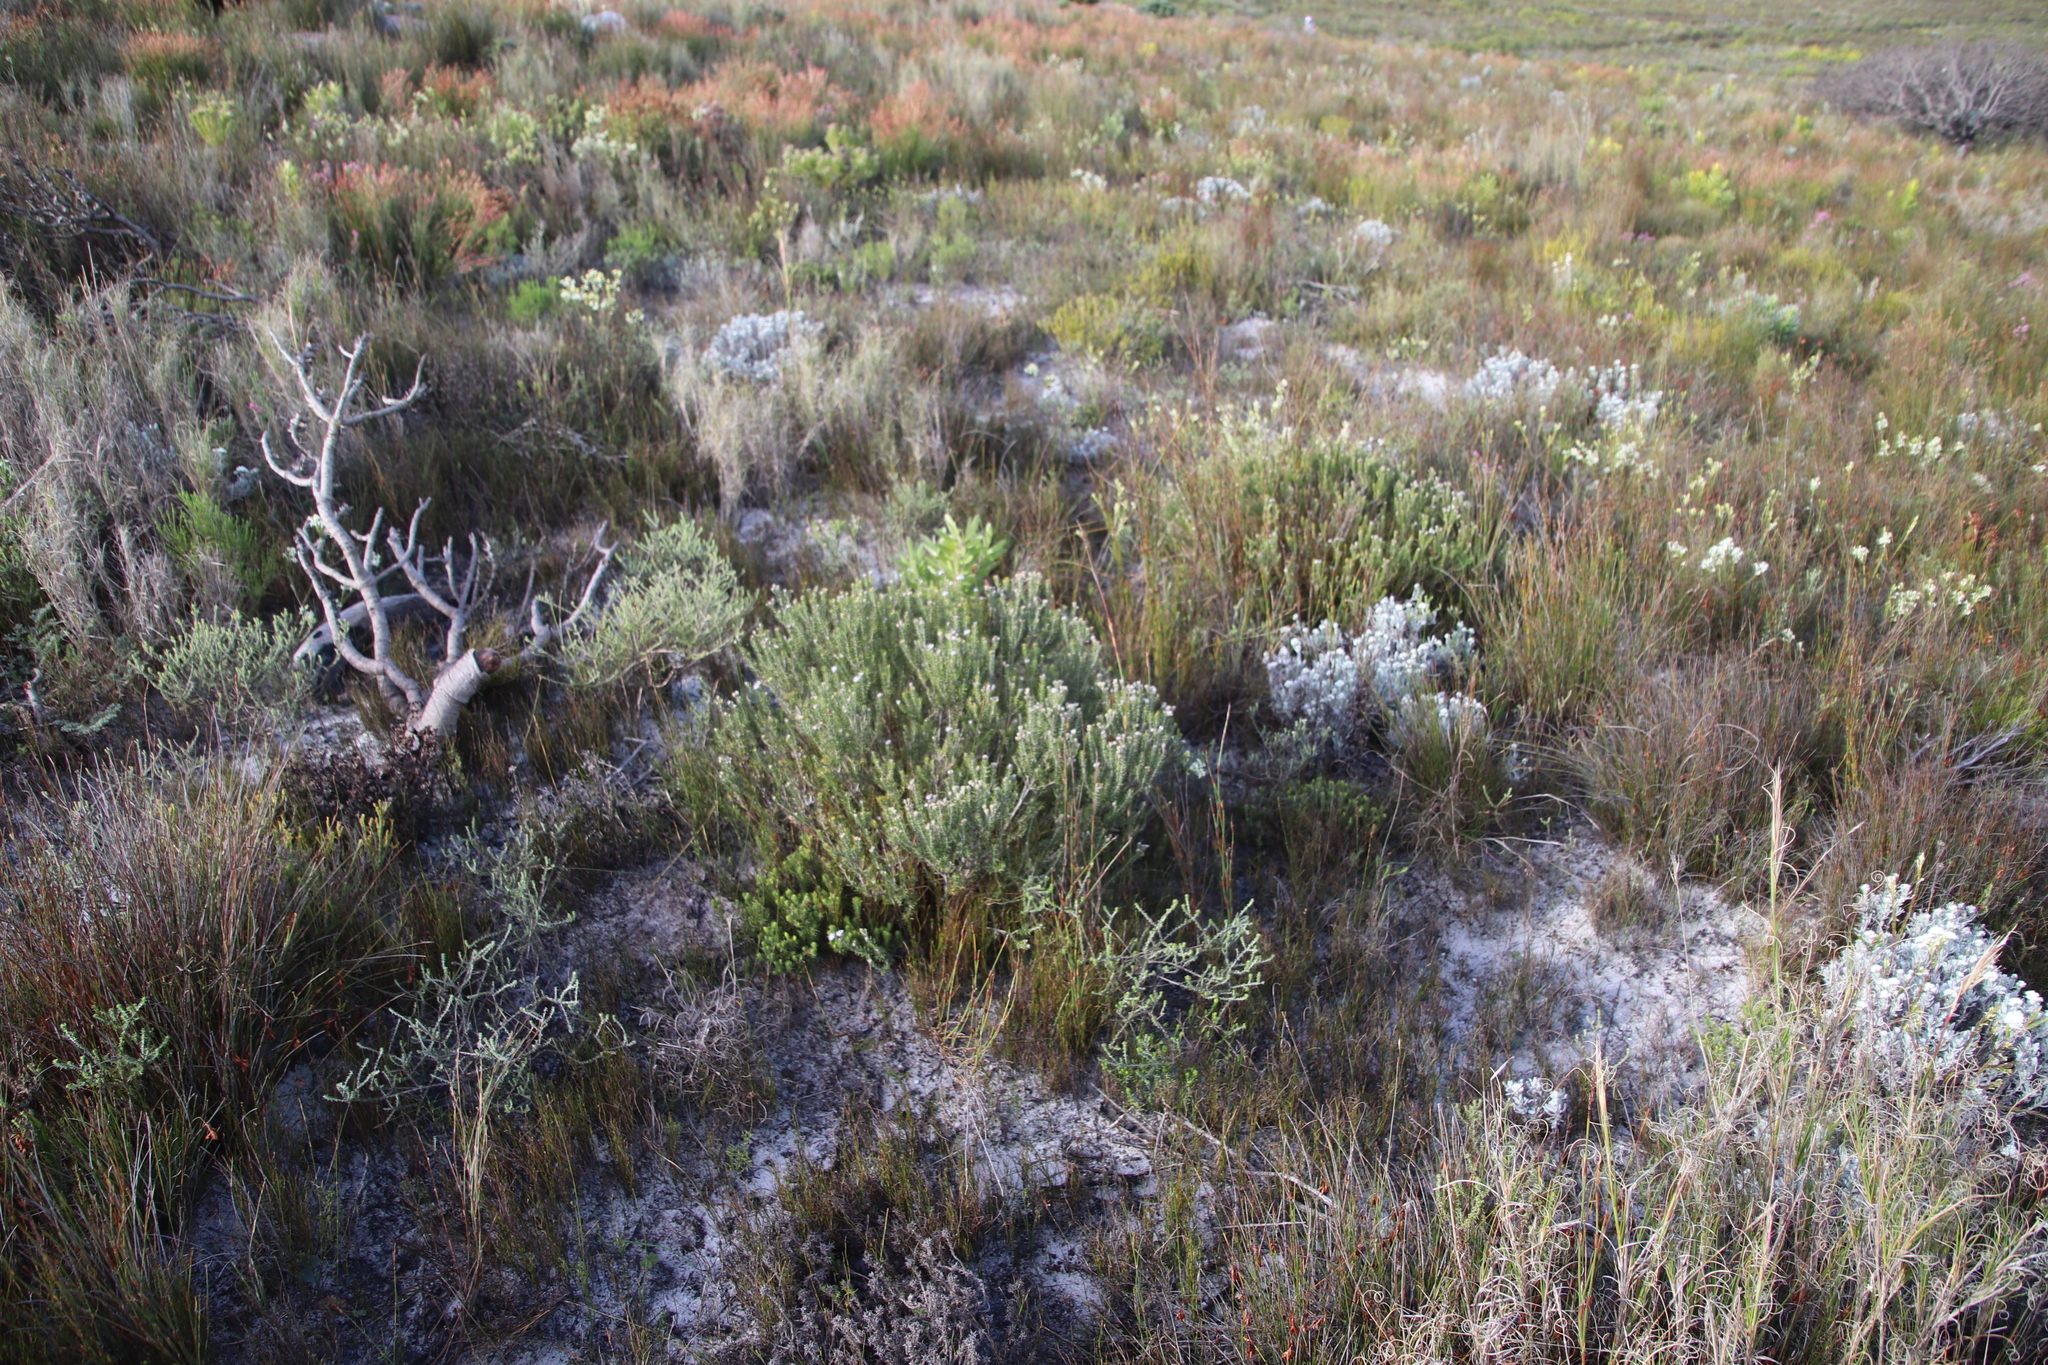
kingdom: Plantae
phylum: Tracheophyta
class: Magnoliopsida
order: Rosales
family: Rhamnaceae
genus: Trichocephalus
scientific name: Trichocephalus stipularis
